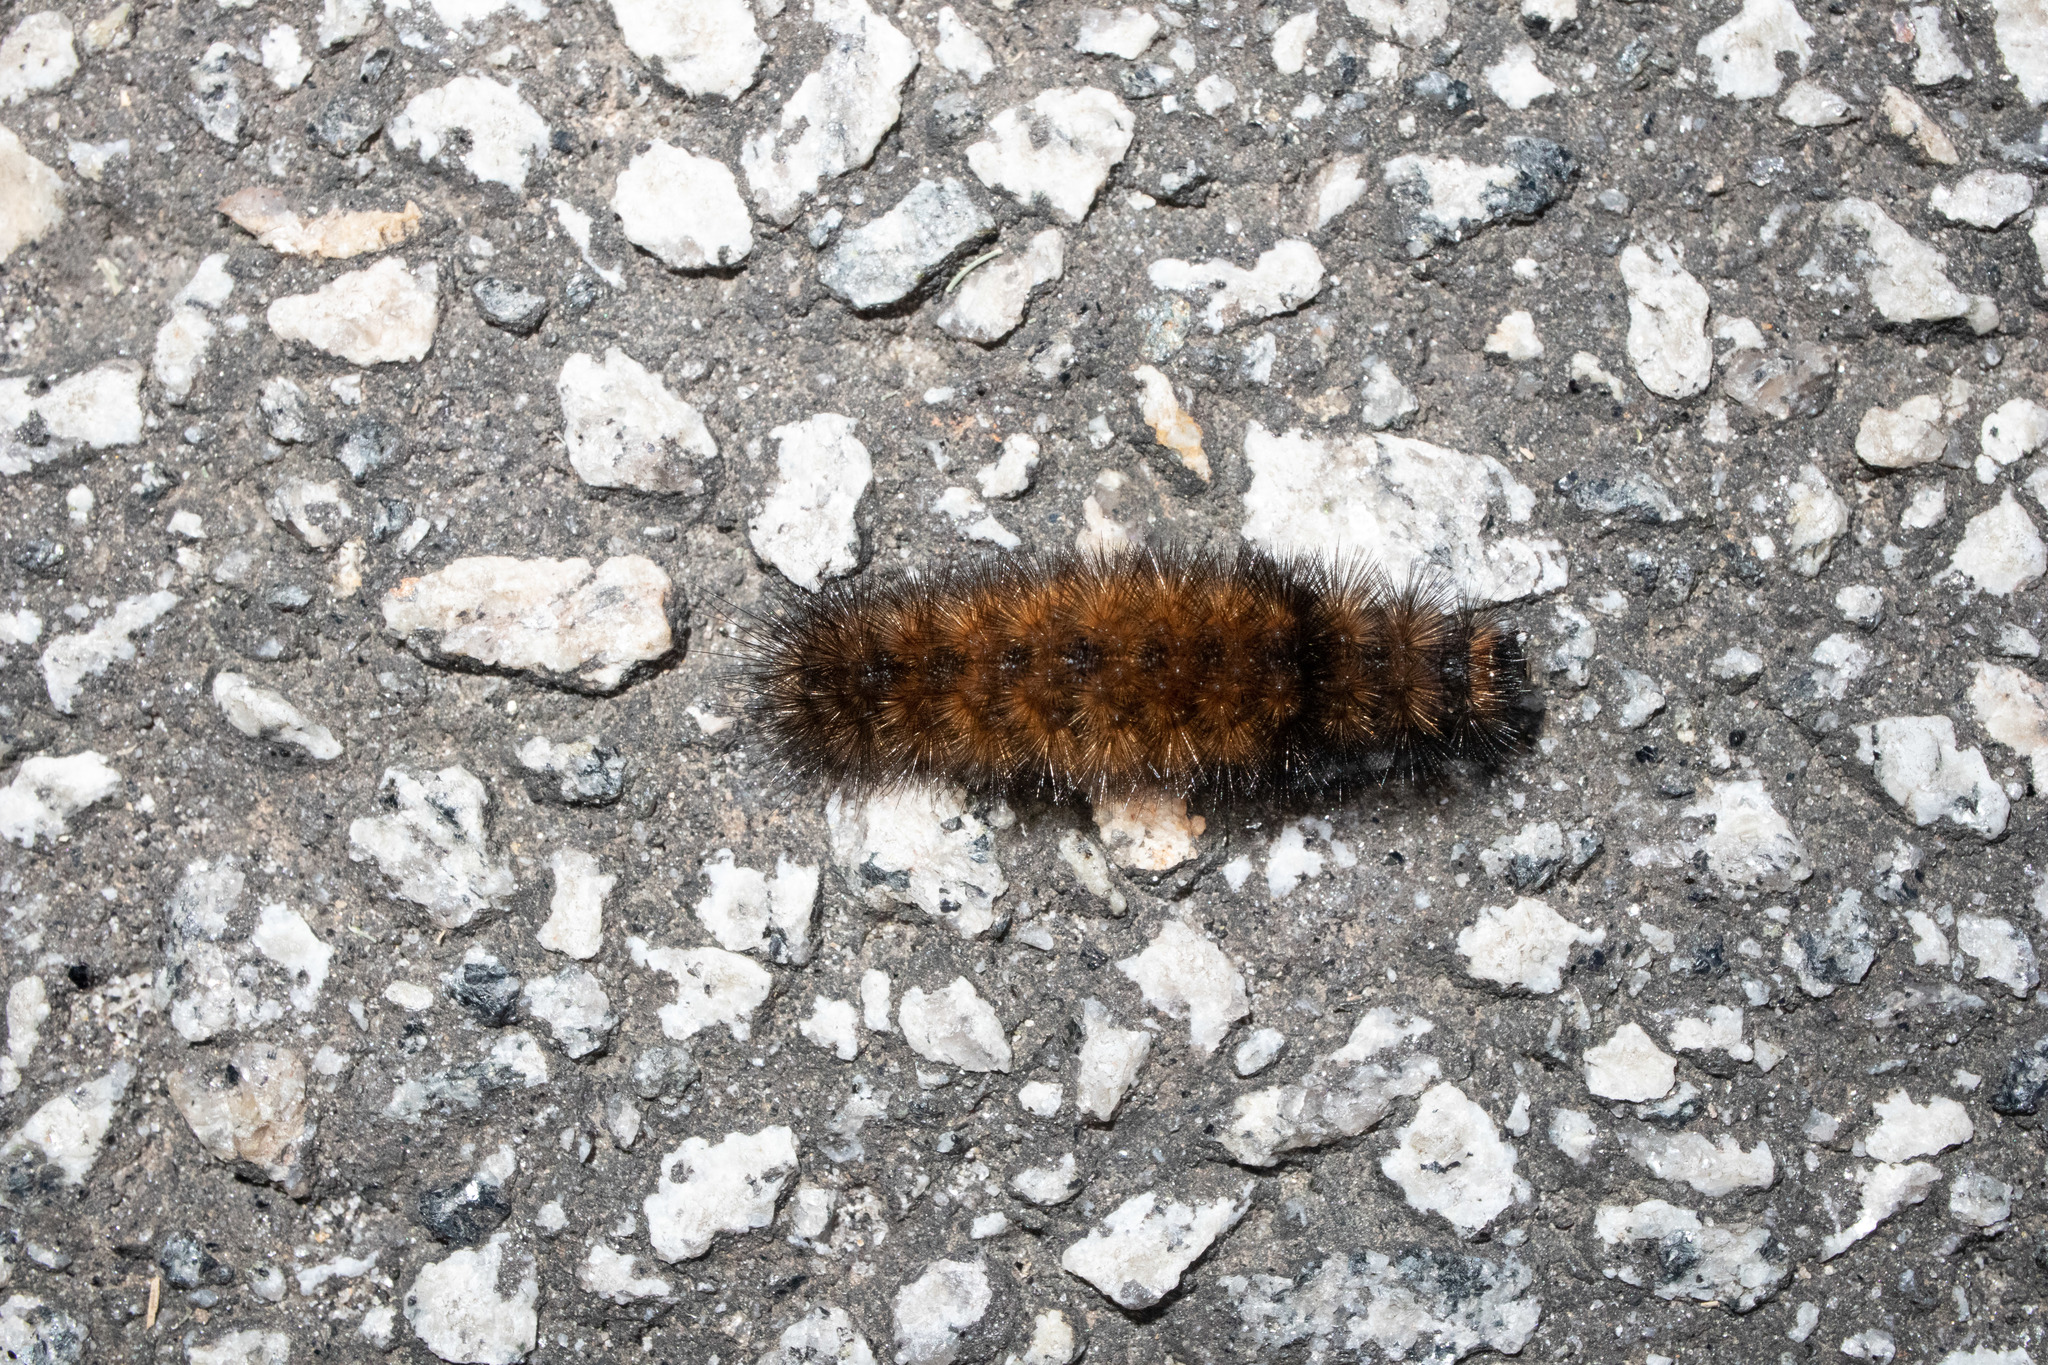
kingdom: Animalia
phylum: Arthropoda
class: Insecta
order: Lepidoptera
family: Erebidae
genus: Pyrrharctia
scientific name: Pyrrharctia isabella
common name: Isabella tiger moth
